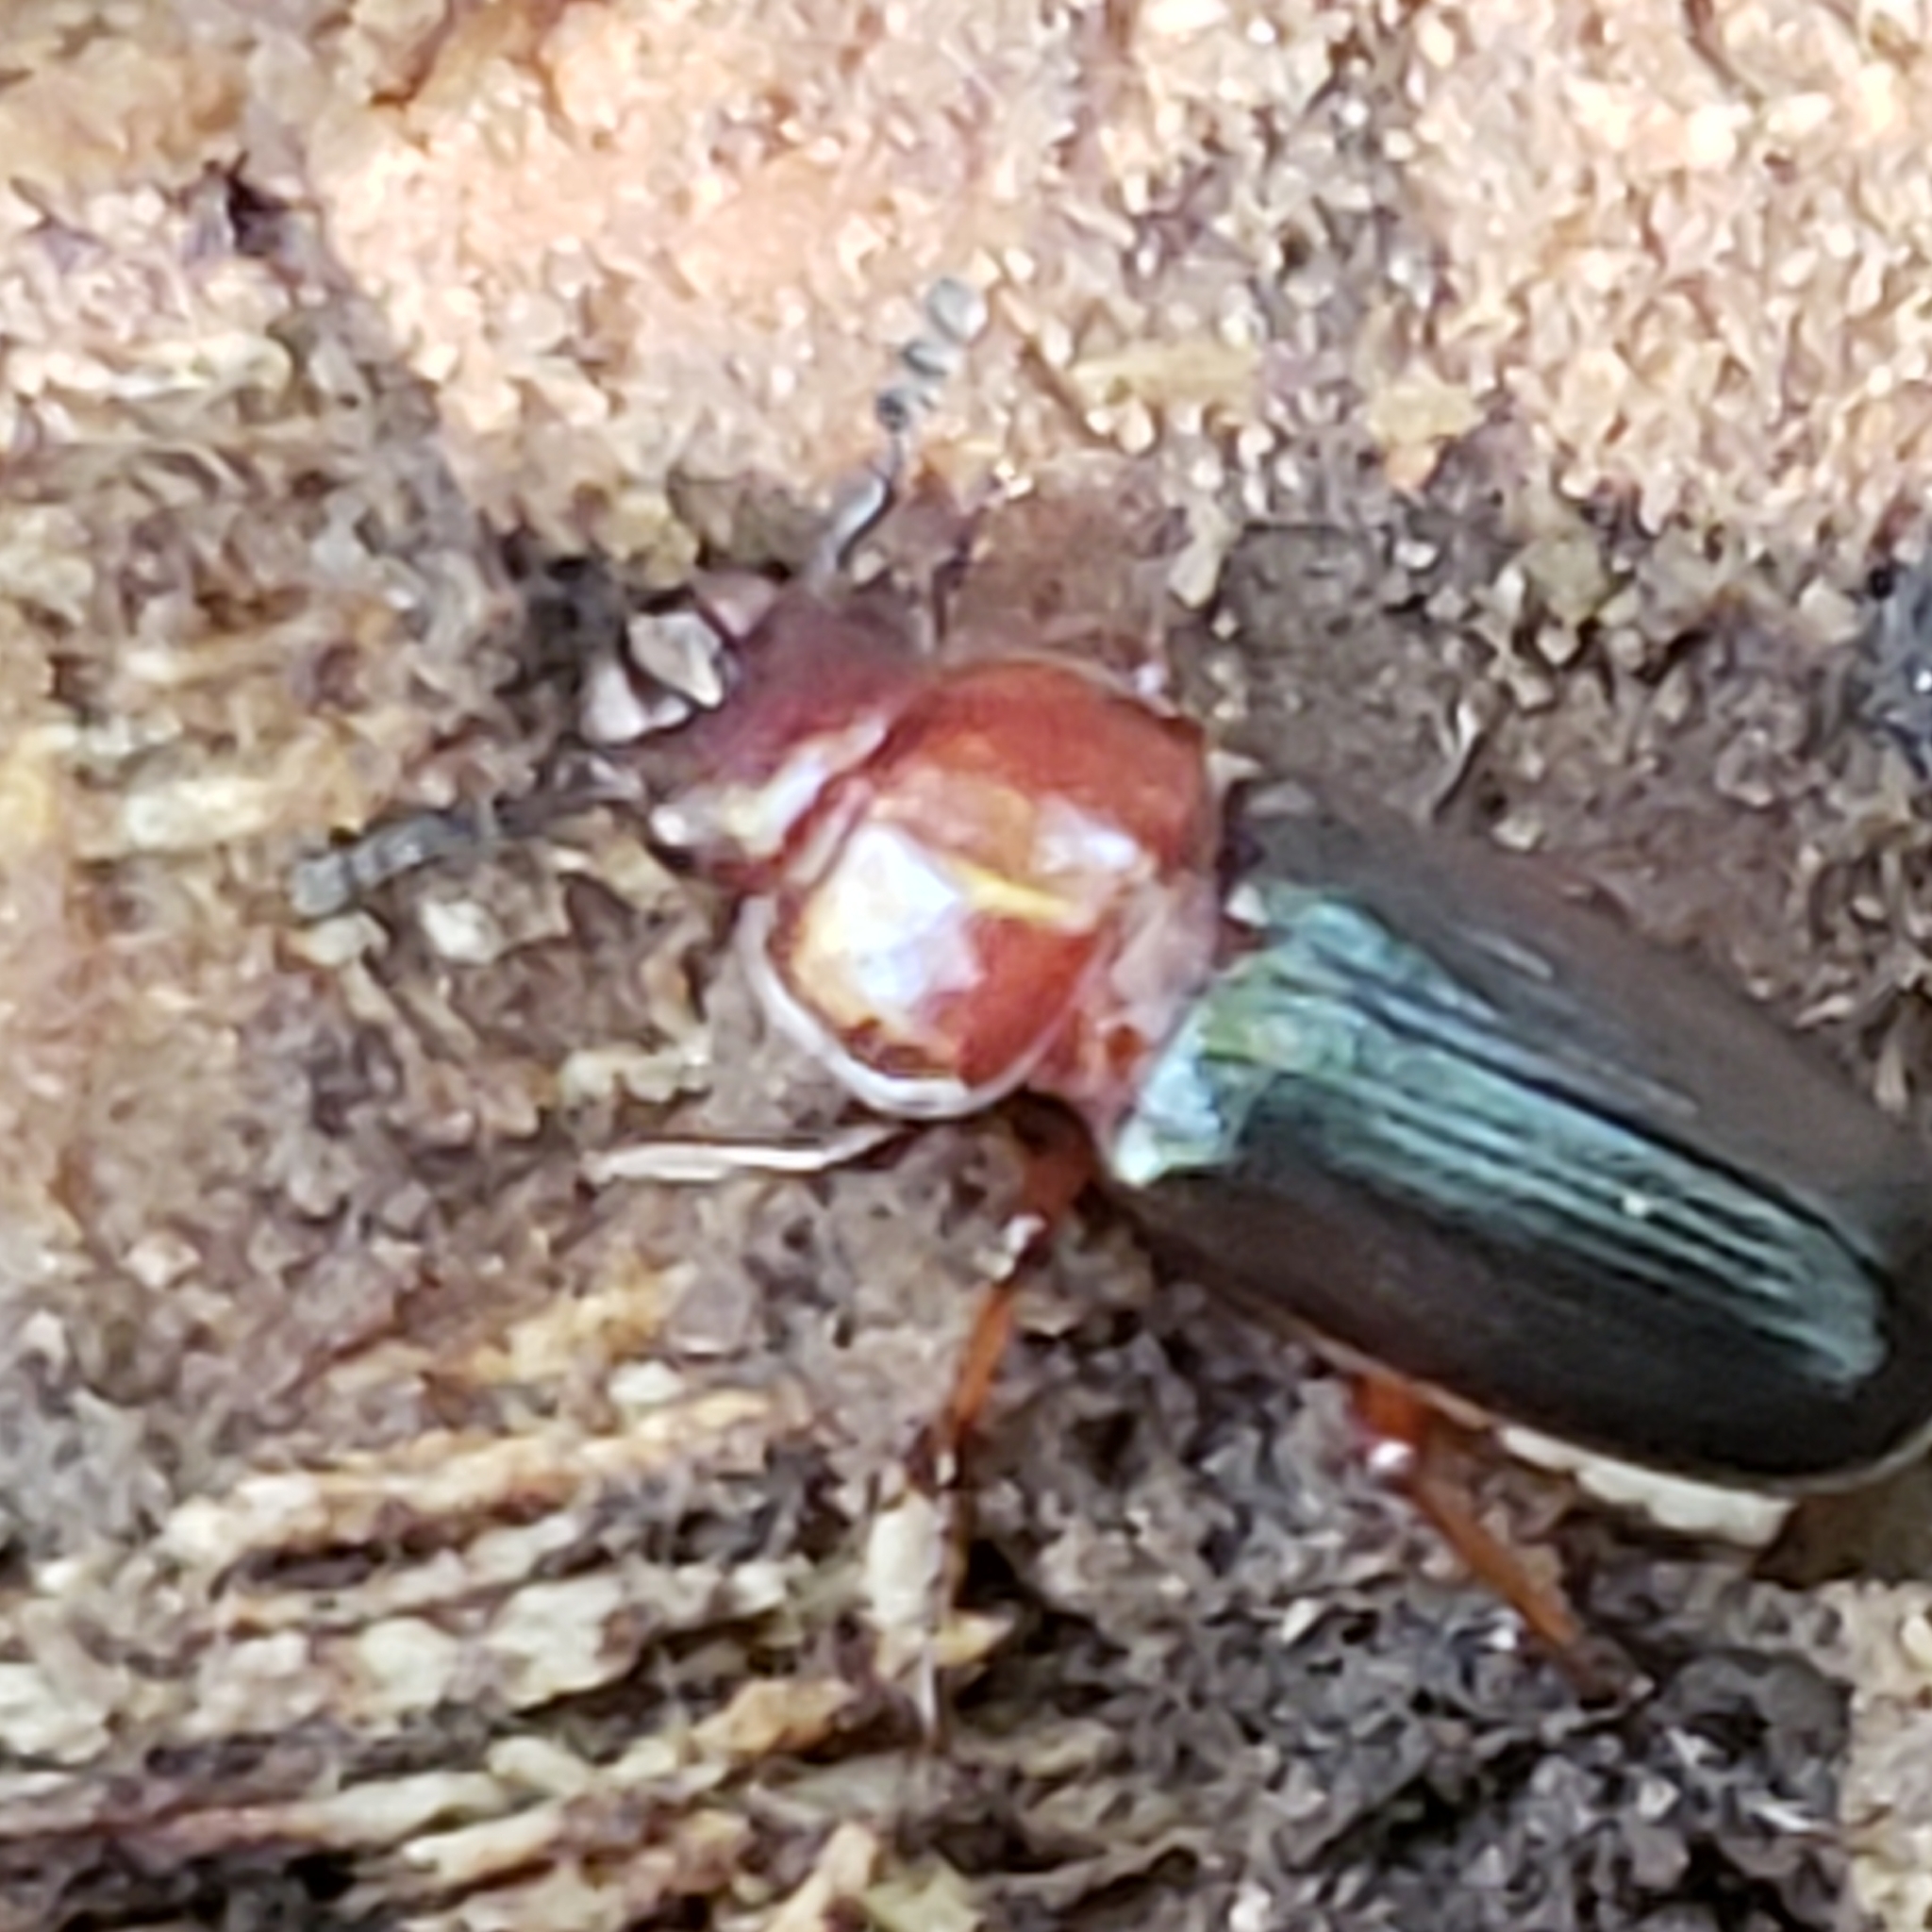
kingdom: Animalia
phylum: Arthropoda
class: Insecta
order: Coleoptera
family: Carabidae
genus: Amphasia
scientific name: Amphasia interstitialis
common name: Red-headed ground beetle
